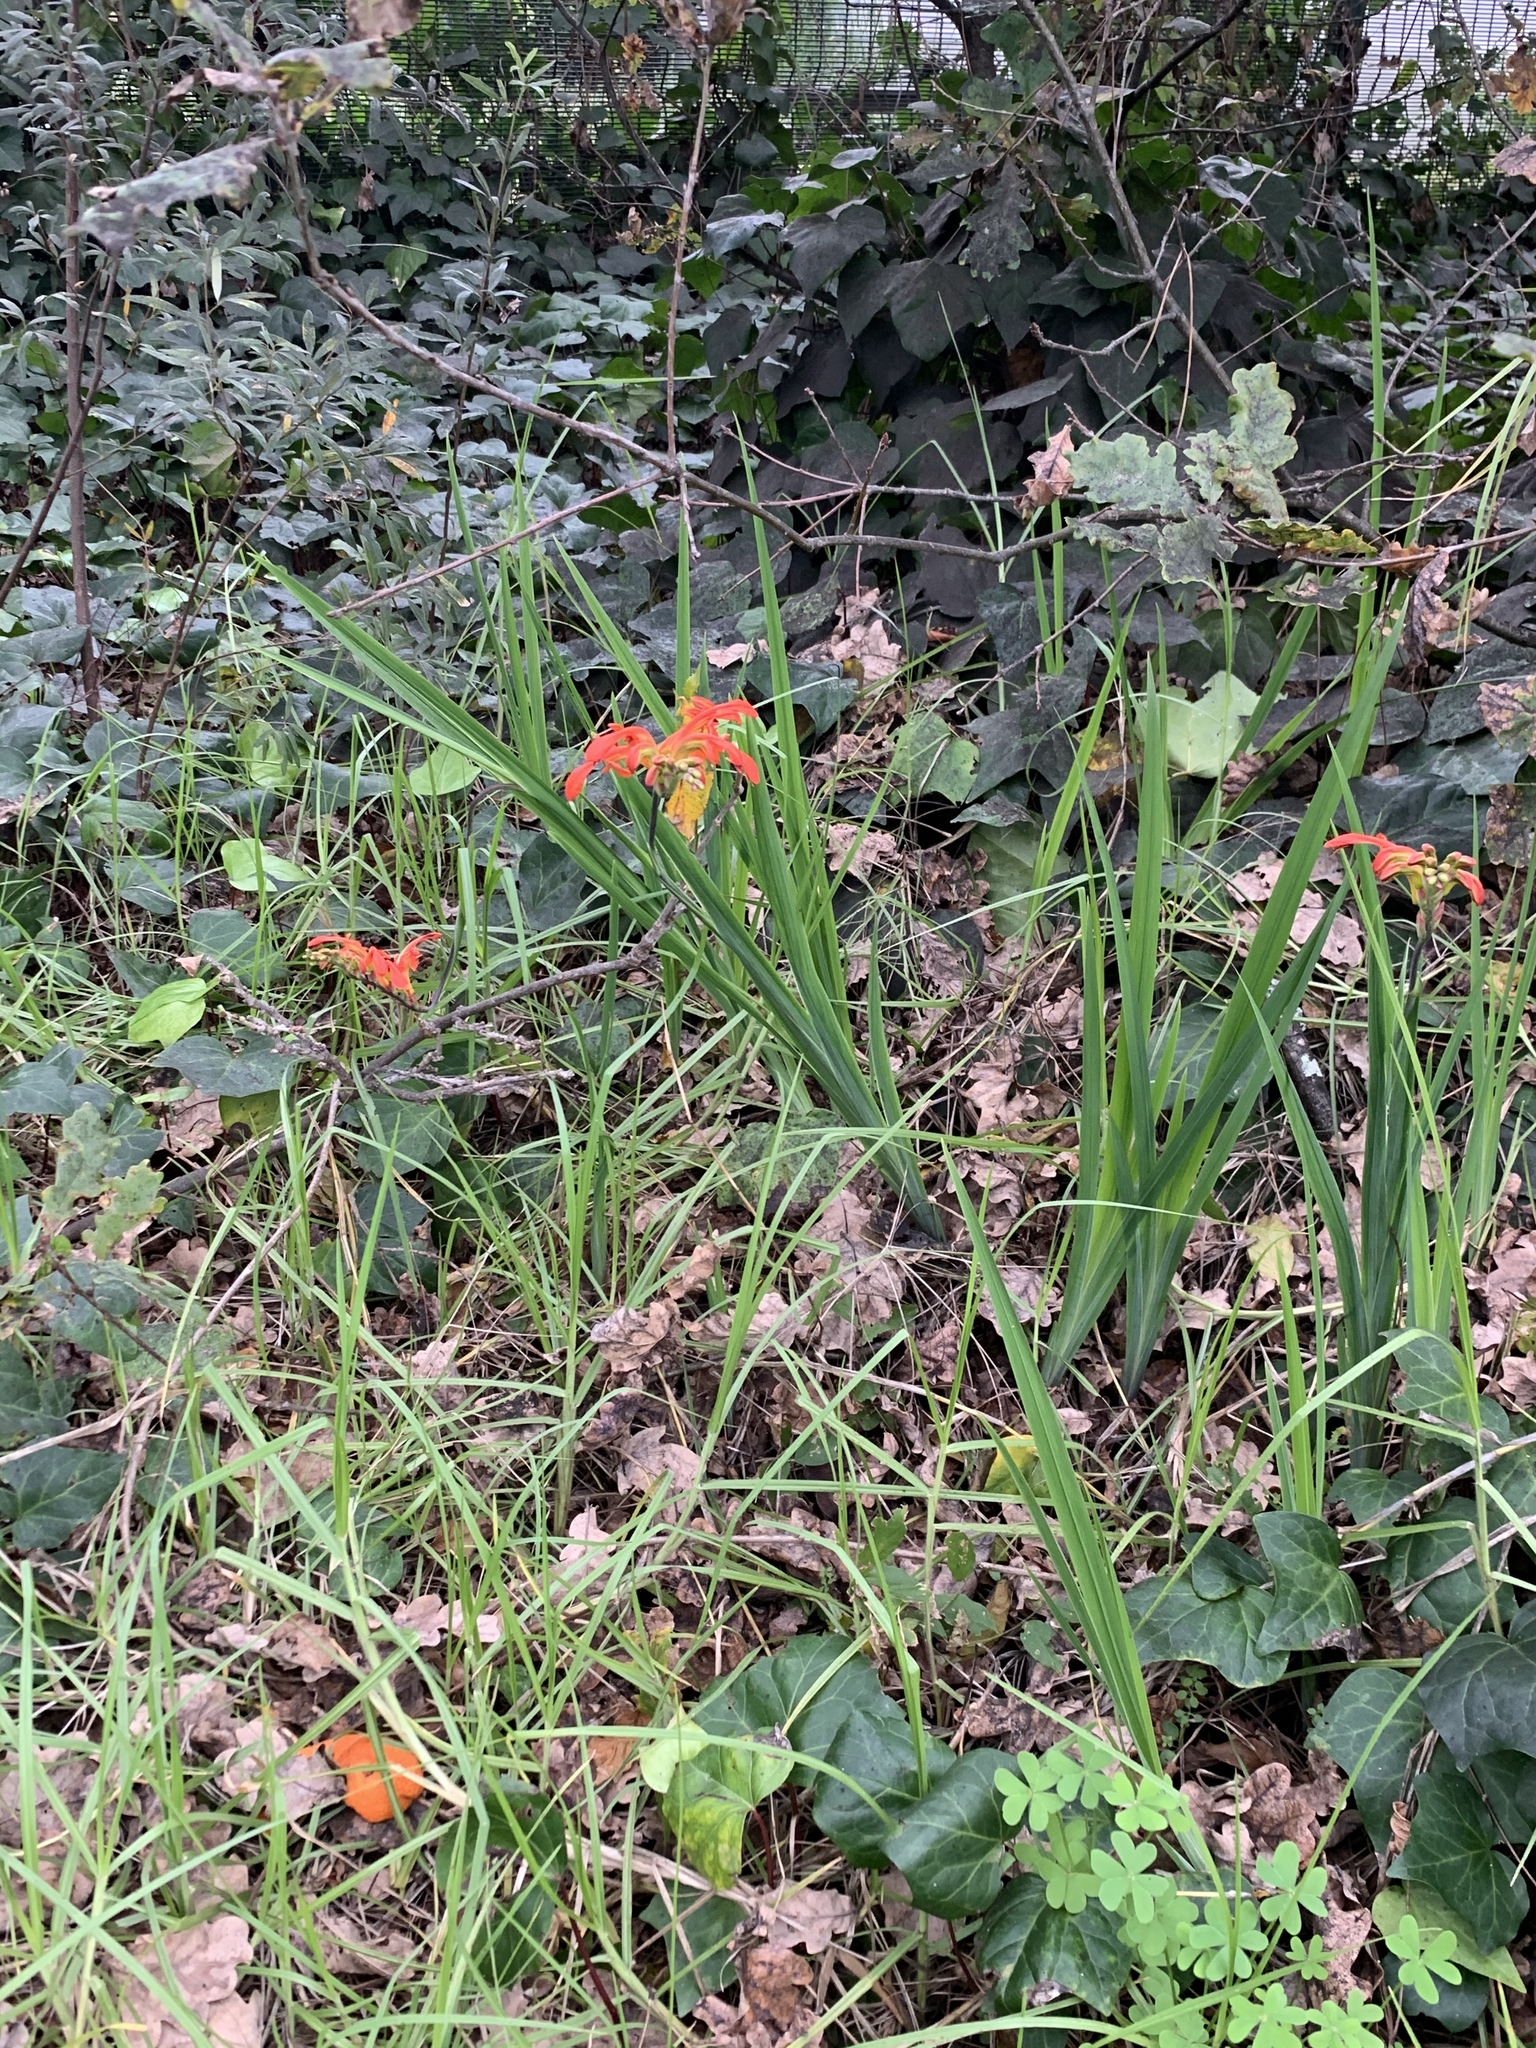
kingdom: Plantae
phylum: Tracheophyta
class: Liliopsida
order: Asparagales
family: Iridaceae
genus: Chasmanthe
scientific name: Chasmanthe aethiopica
